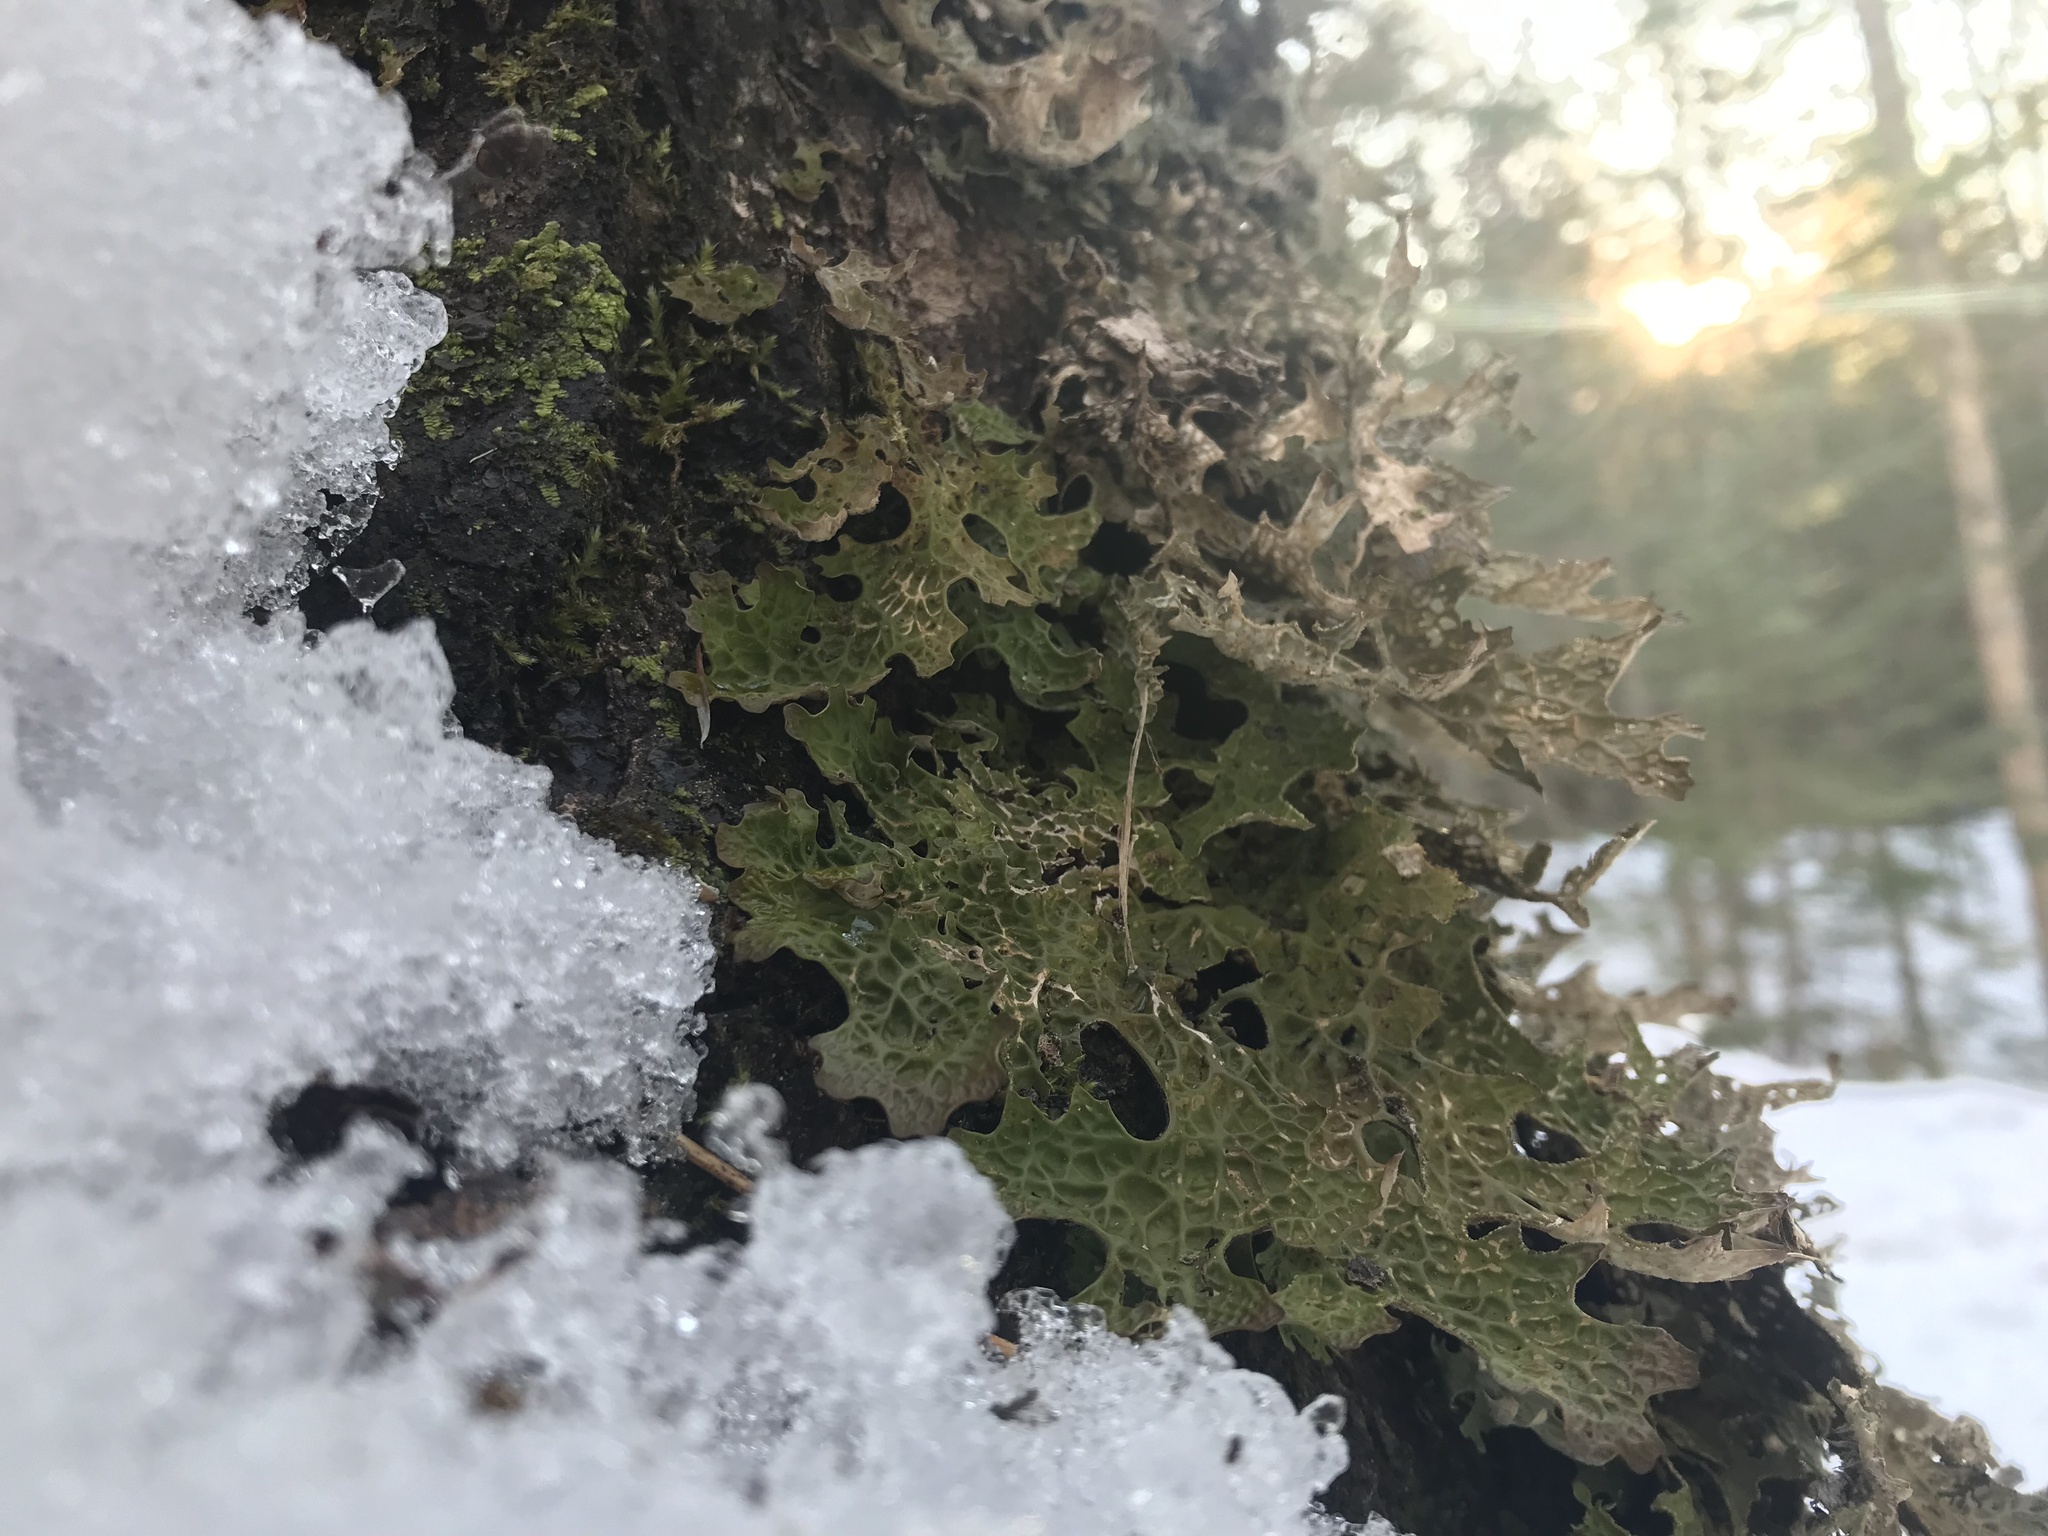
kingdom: Fungi
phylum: Ascomycota
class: Lecanoromycetes
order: Peltigerales
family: Lobariaceae
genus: Lobaria
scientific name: Lobaria pulmonaria
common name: Lungwort
